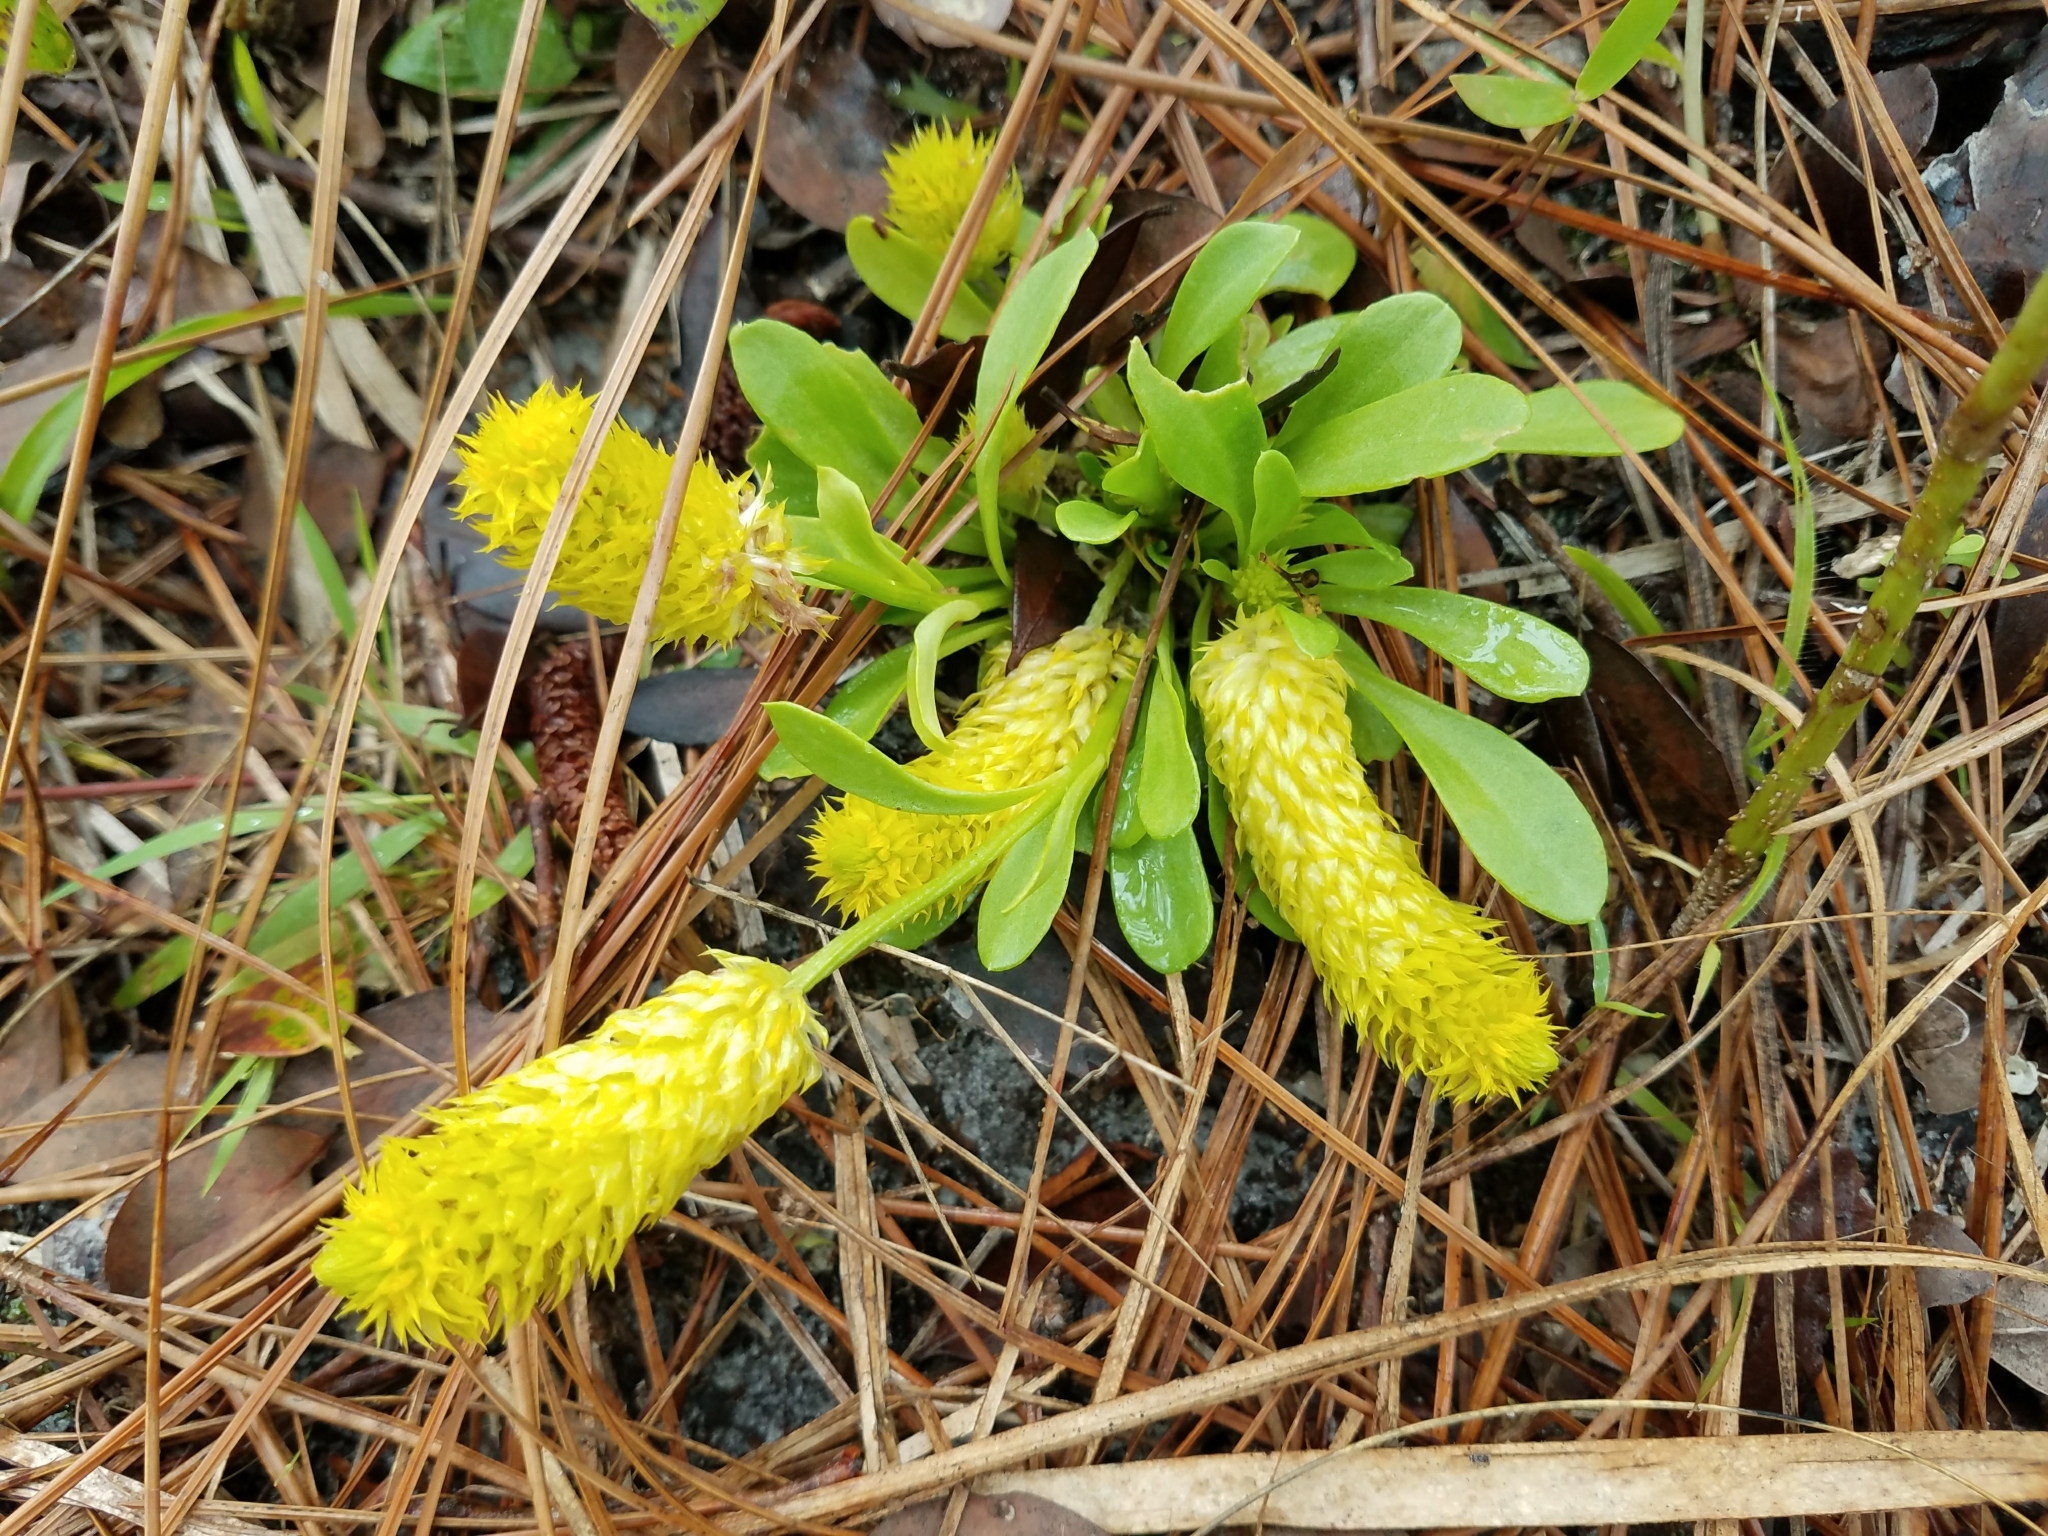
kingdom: Plantae
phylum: Tracheophyta
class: Magnoliopsida
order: Fabales
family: Polygalaceae
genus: Polygala
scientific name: Polygala nana
